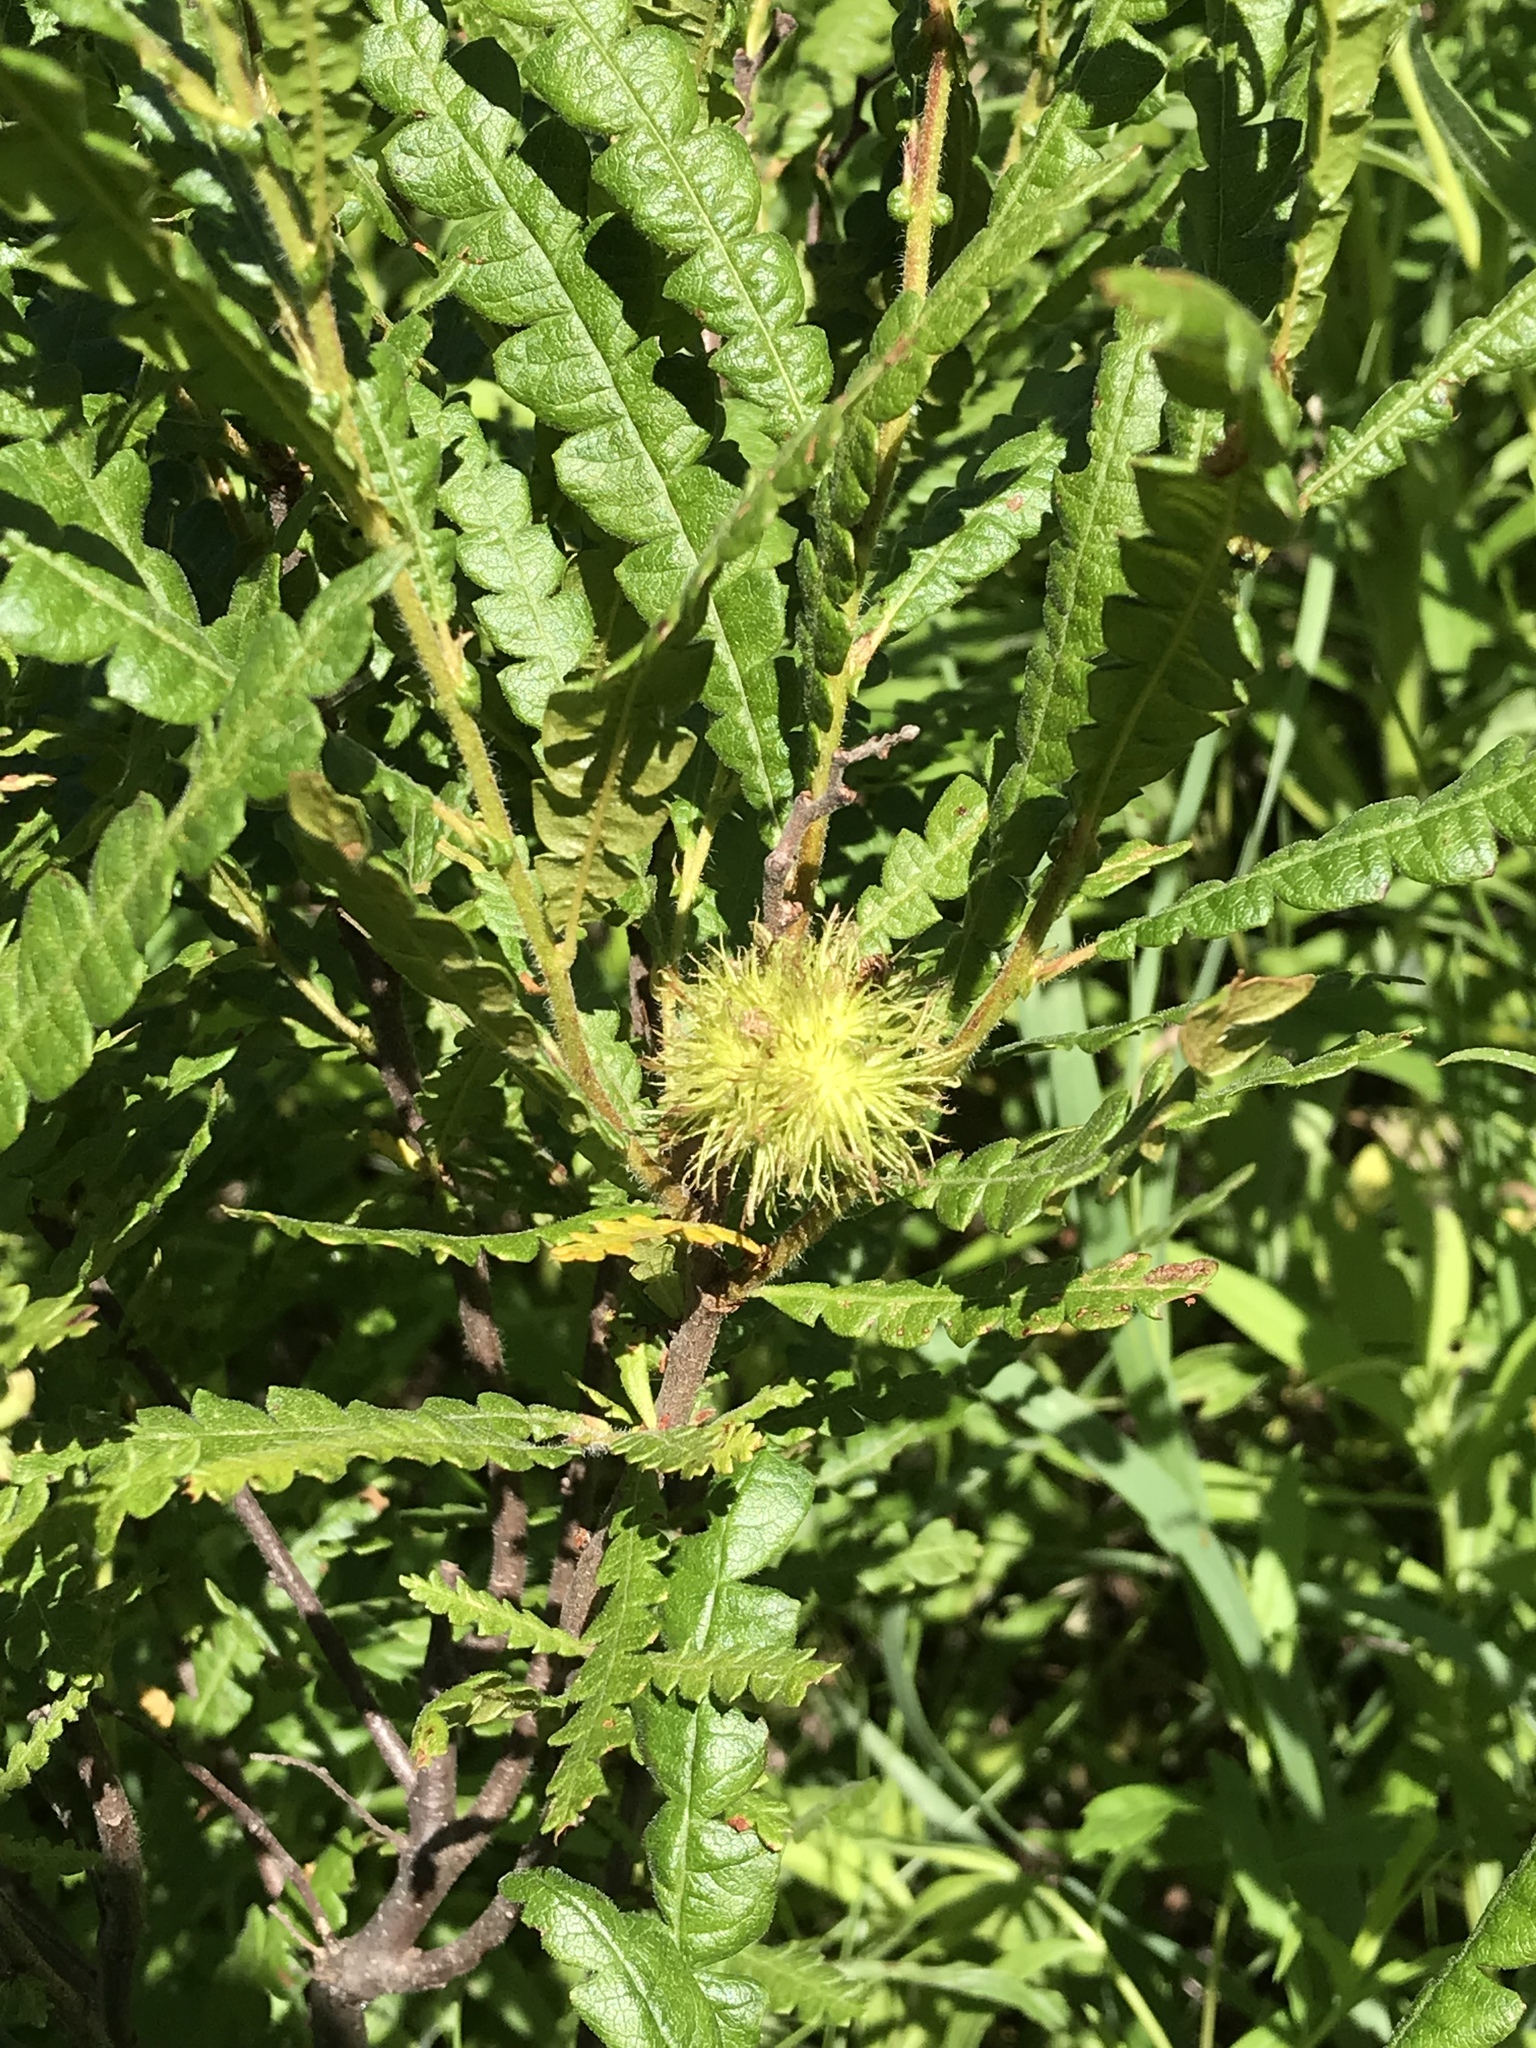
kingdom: Plantae
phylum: Tracheophyta
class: Magnoliopsida
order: Fagales
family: Myricaceae
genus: Comptonia
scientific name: Comptonia peregrina
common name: Sweet-fern
